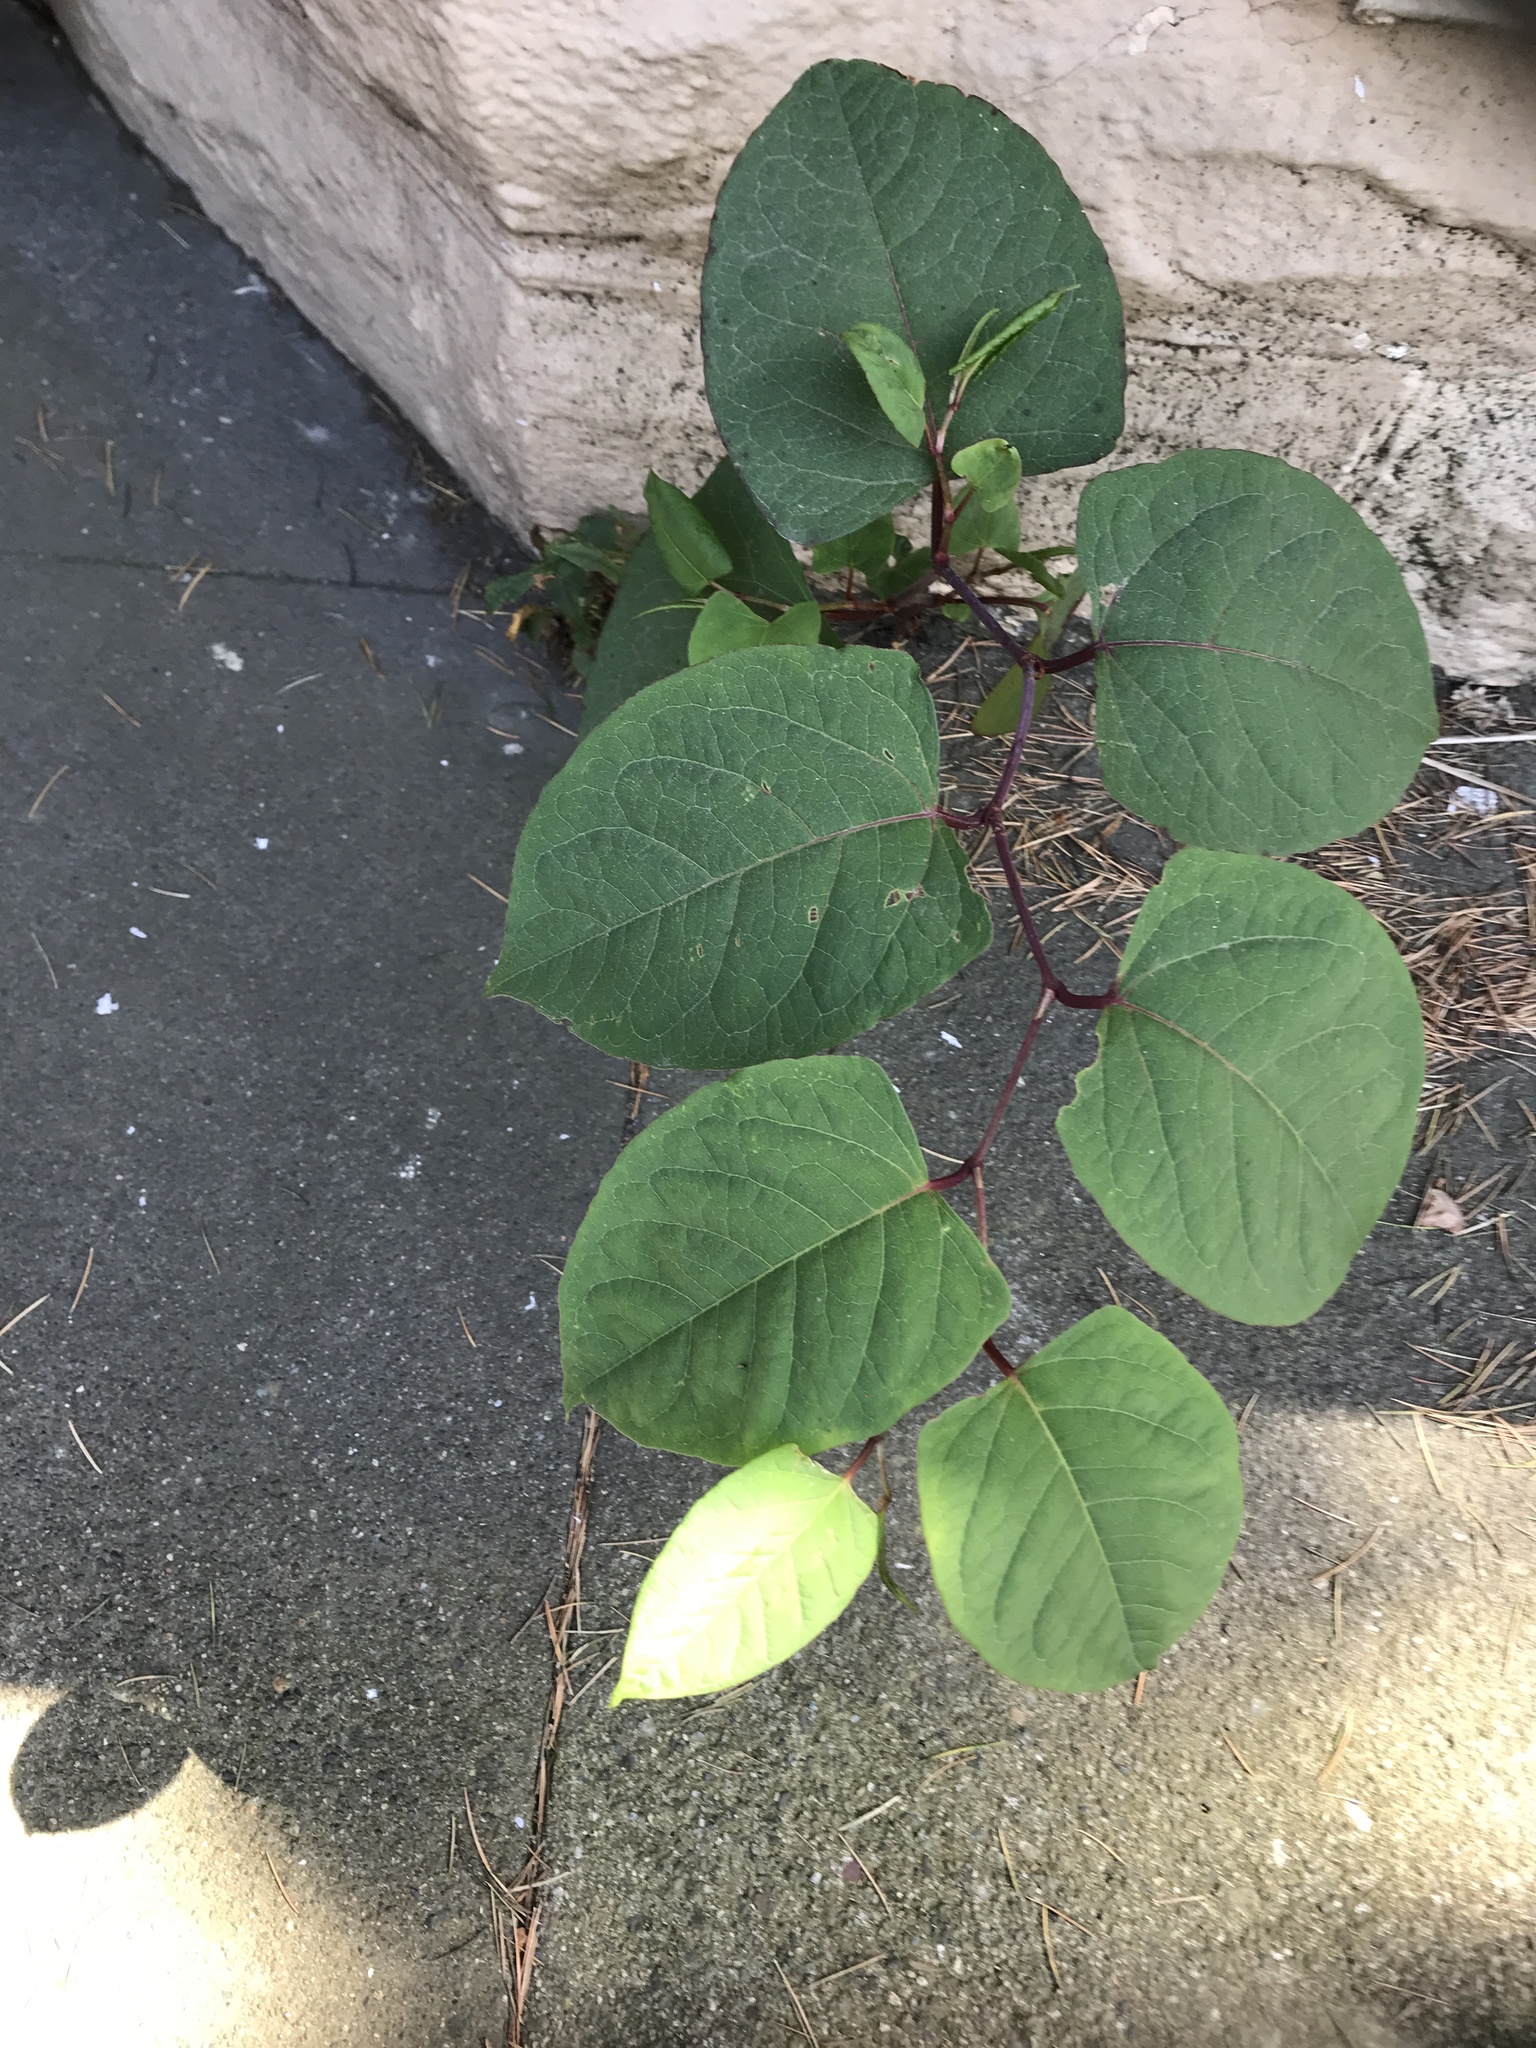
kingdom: Plantae
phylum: Tracheophyta
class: Magnoliopsida
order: Caryophyllales
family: Polygonaceae
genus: Reynoutria
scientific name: Reynoutria japonica
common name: Japanese knotweed
